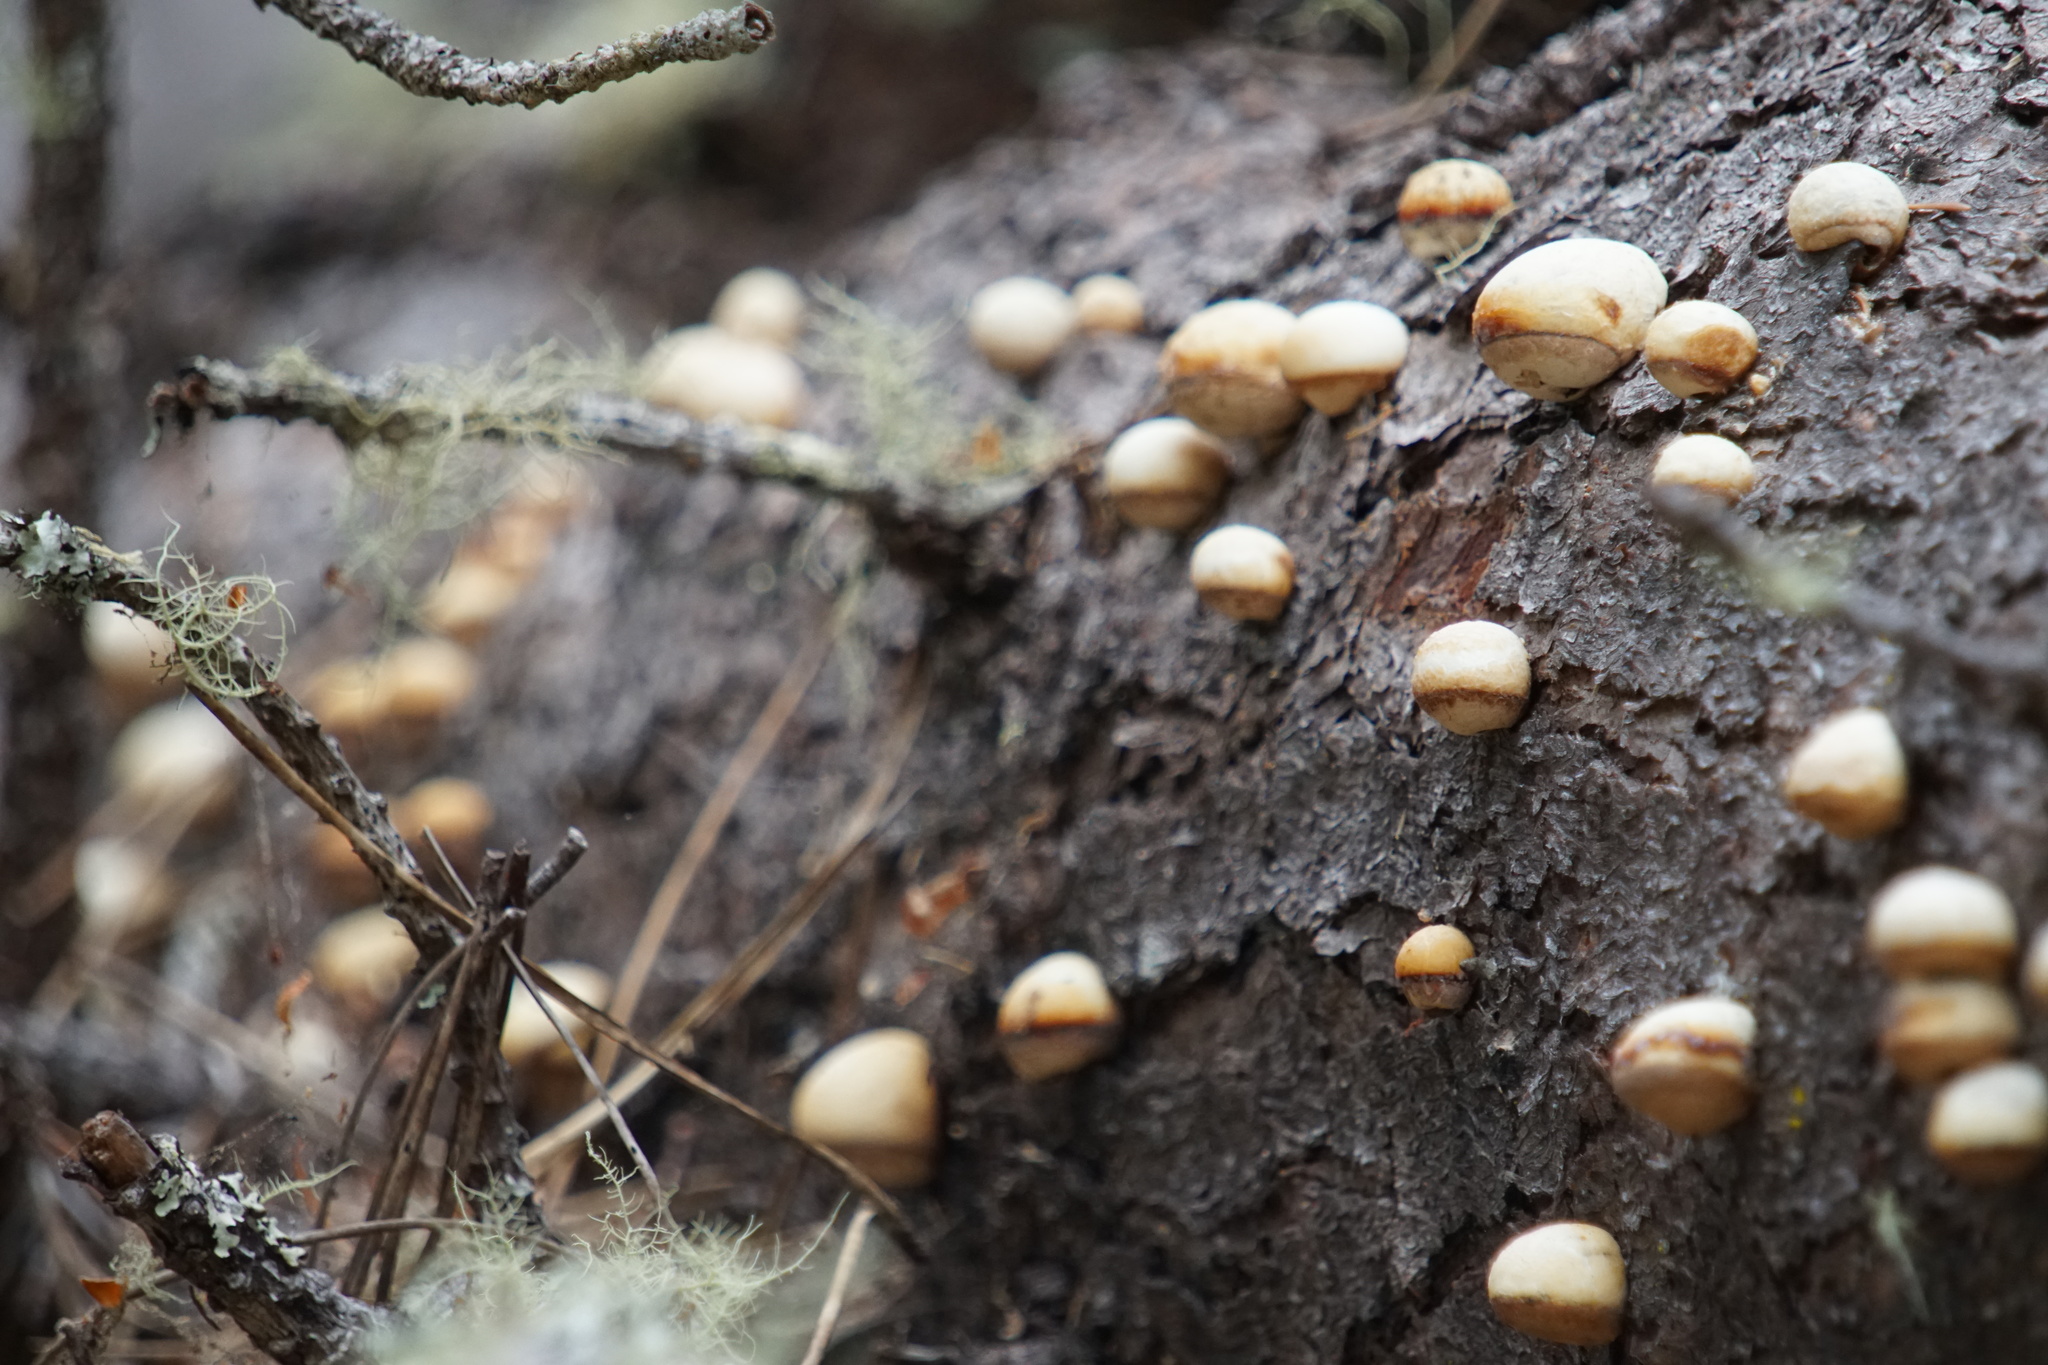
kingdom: Fungi
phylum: Basidiomycota
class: Agaricomycetes
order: Polyporales
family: Polyporaceae
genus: Cryptoporus
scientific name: Cryptoporus volvatus
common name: Veiled polypore
